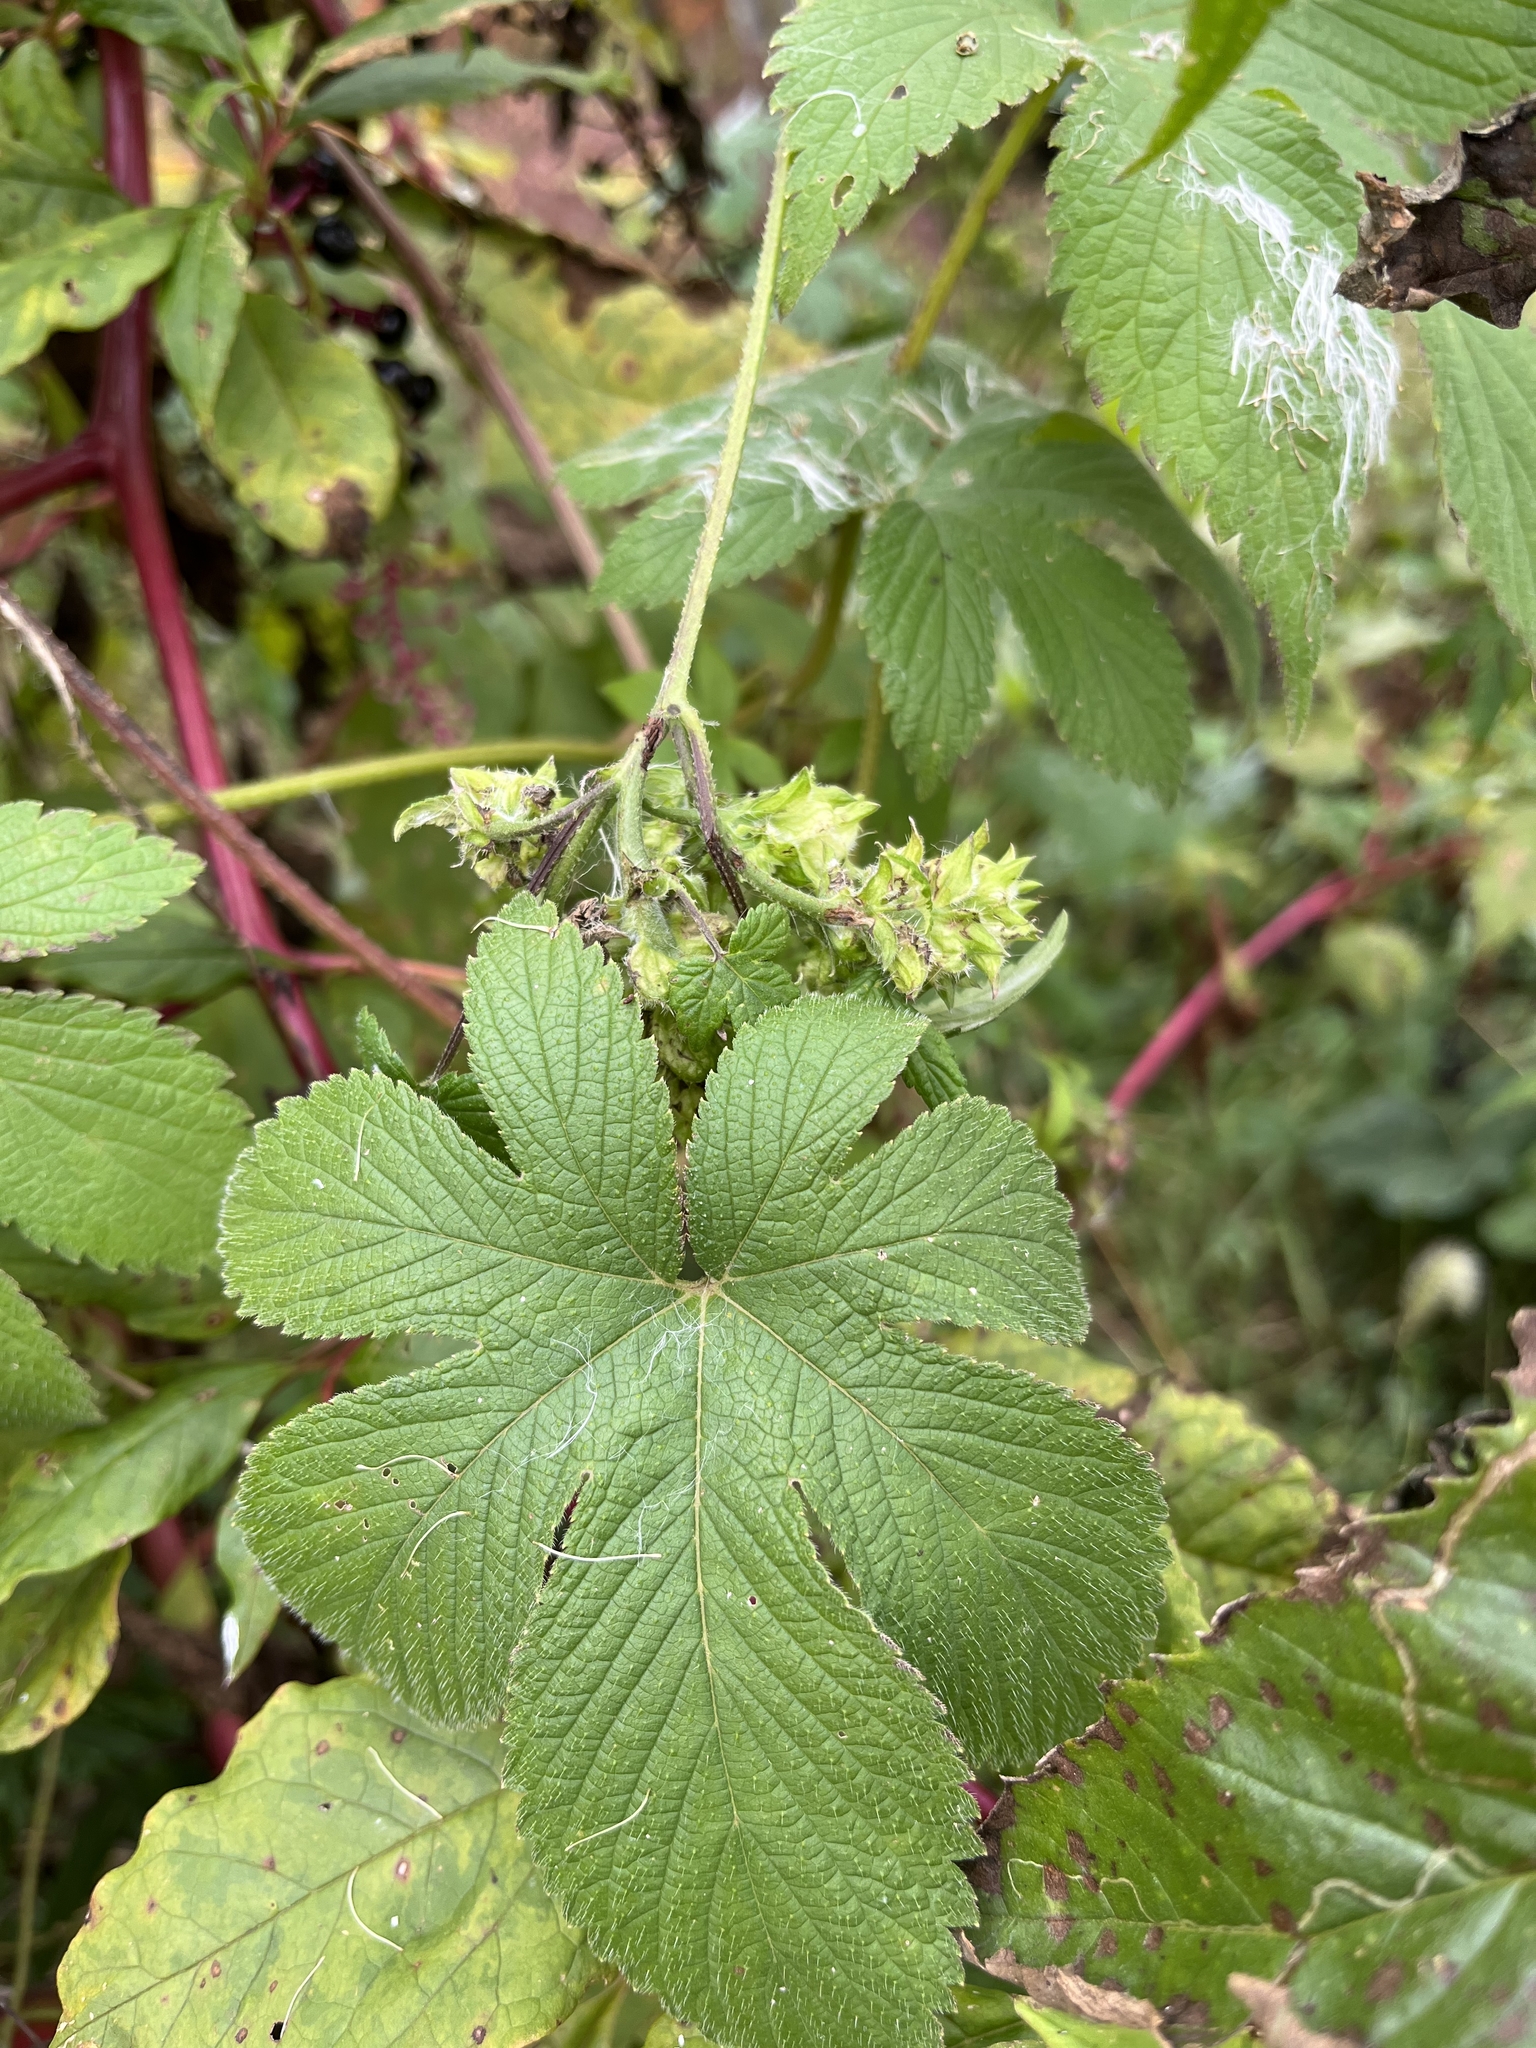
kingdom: Plantae
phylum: Tracheophyta
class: Magnoliopsida
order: Rosales
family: Cannabaceae
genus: Humulus
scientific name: Humulus scandens
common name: Japanese hop
